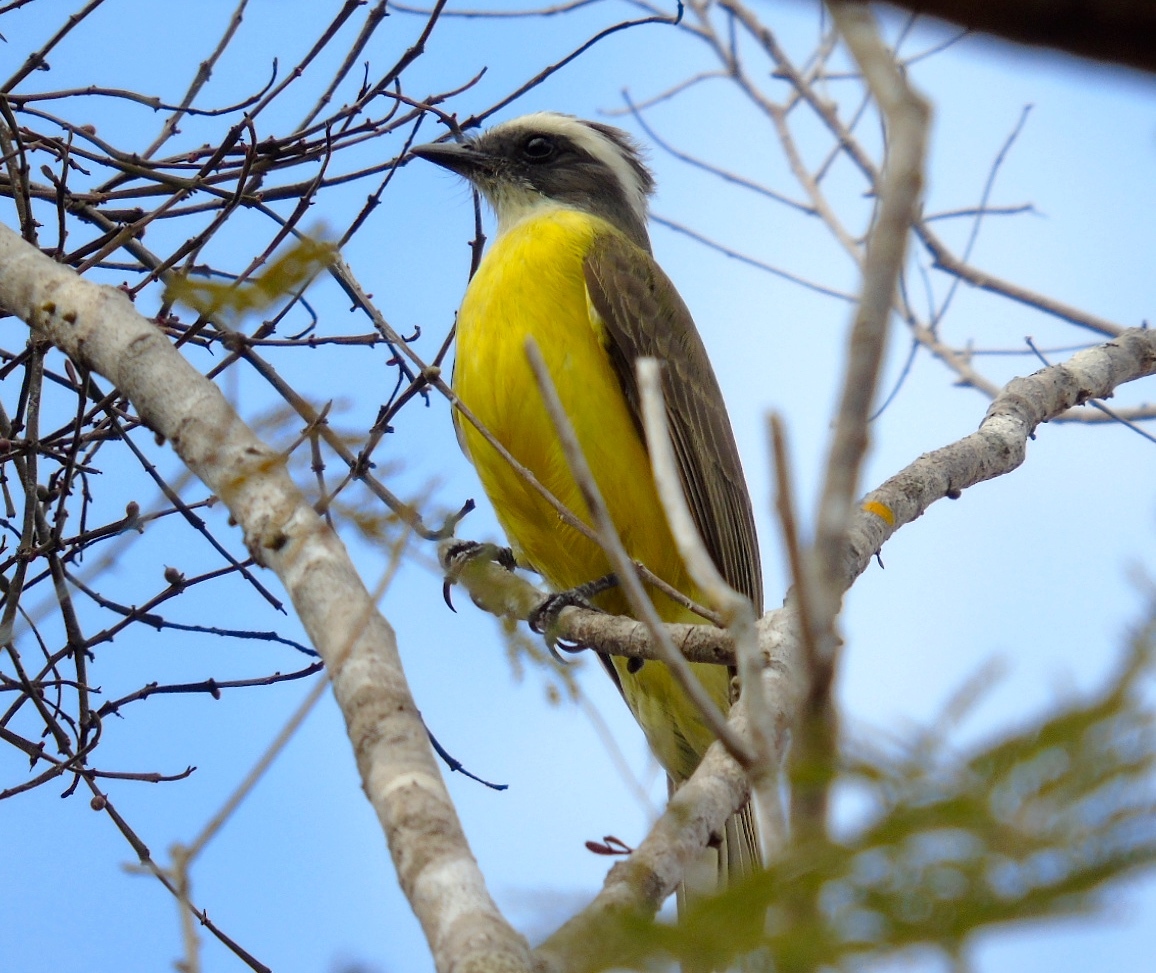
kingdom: Animalia
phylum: Chordata
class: Aves
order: Passeriformes
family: Tyrannidae
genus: Myiozetetes
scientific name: Myiozetetes similis
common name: Social flycatcher
